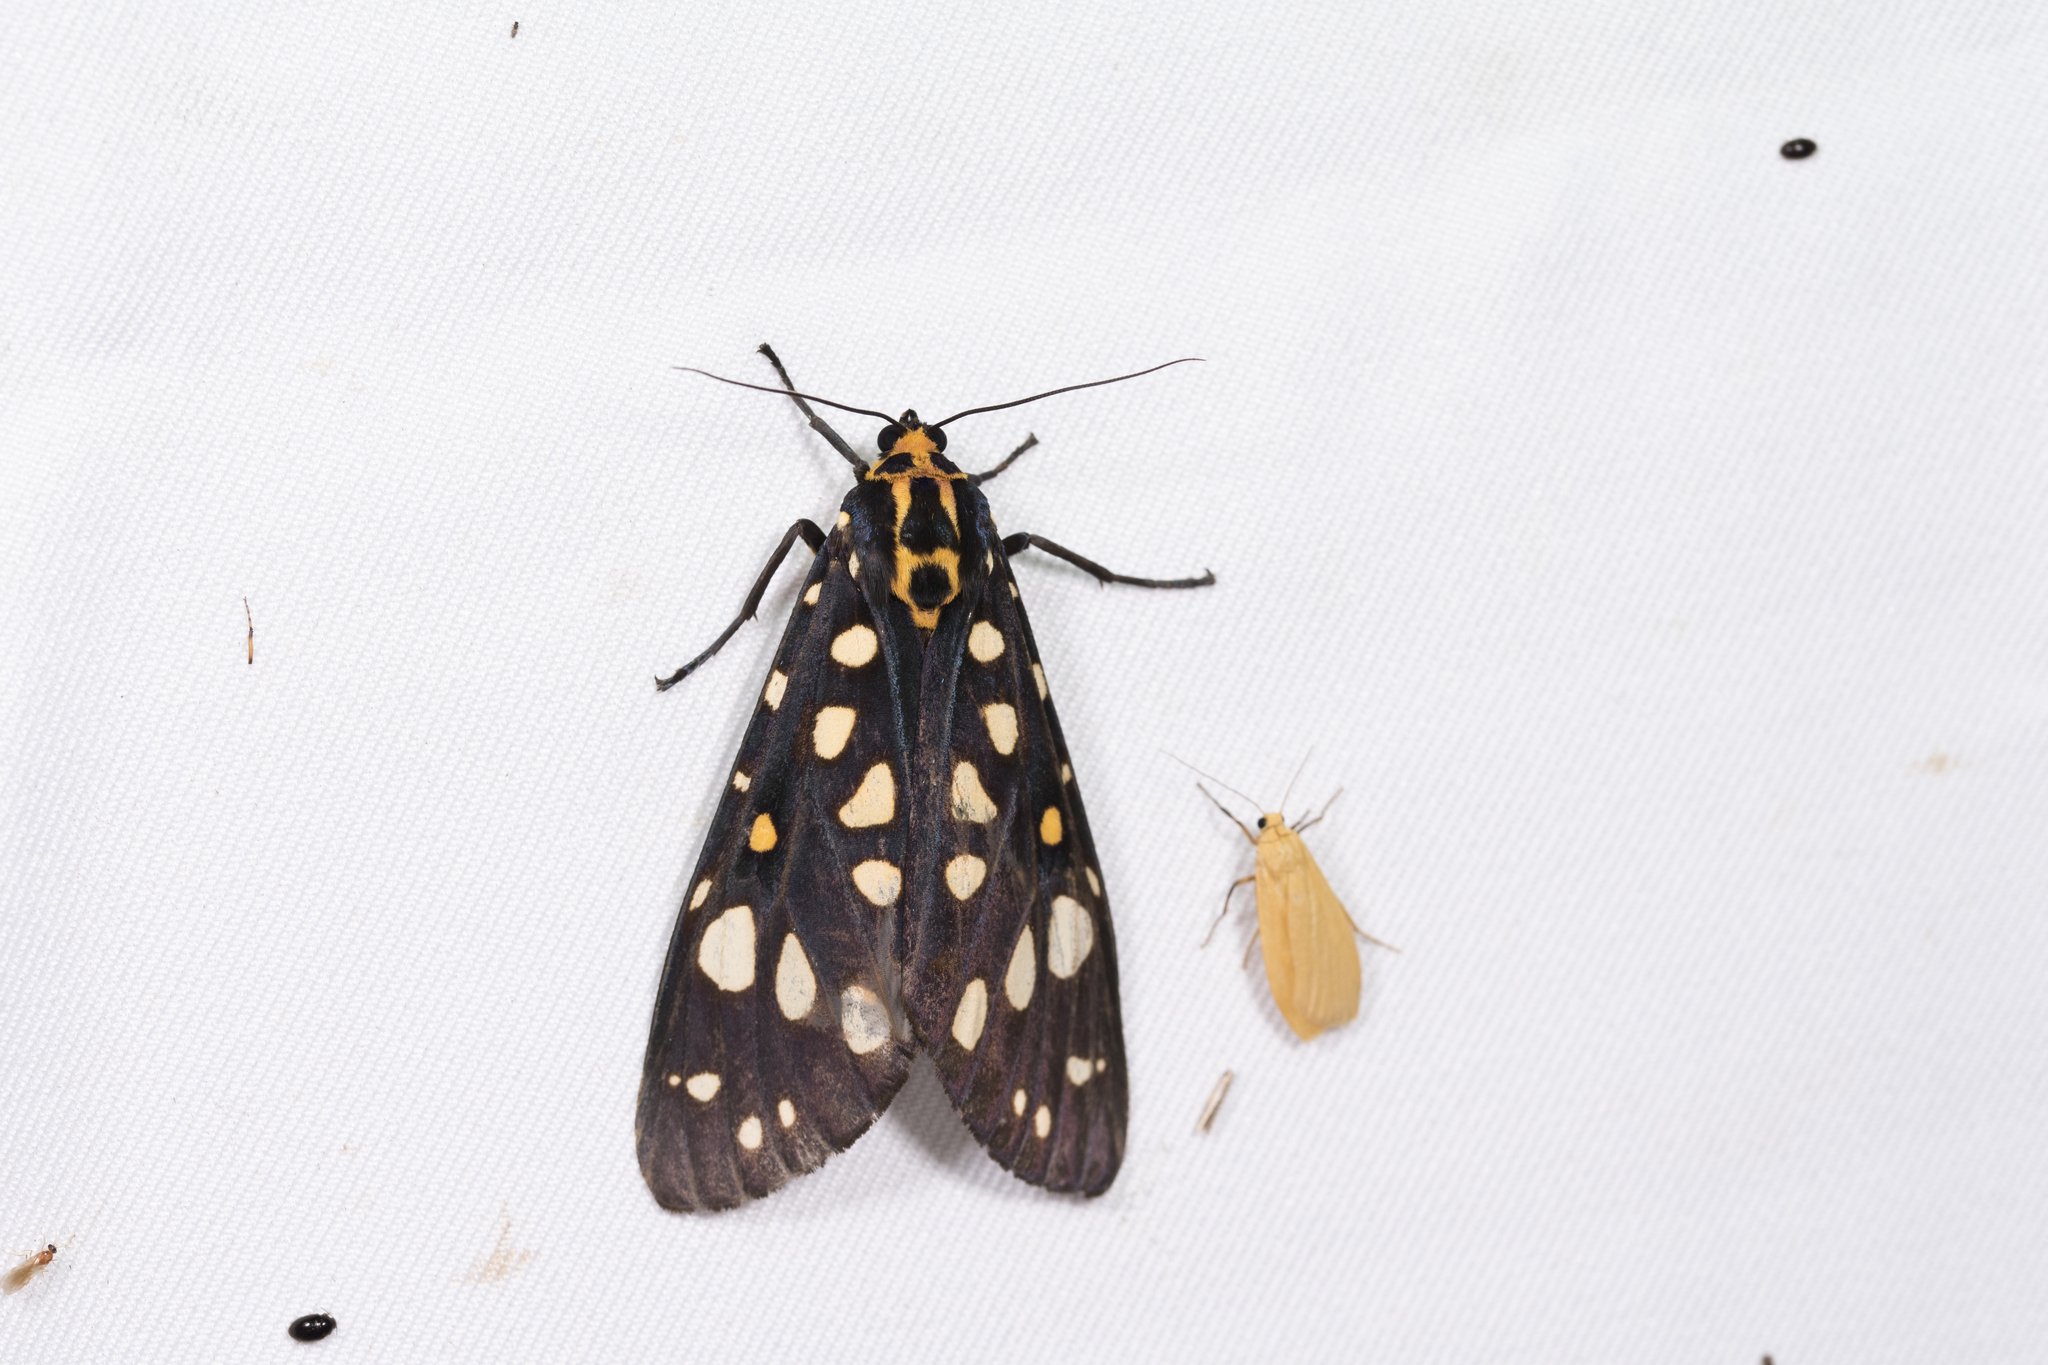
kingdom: Animalia
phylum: Arthropoda
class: Insecta
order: Lepidoptera
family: Erebidae
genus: Aglaomorpha
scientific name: Aglaomorpha histrio
